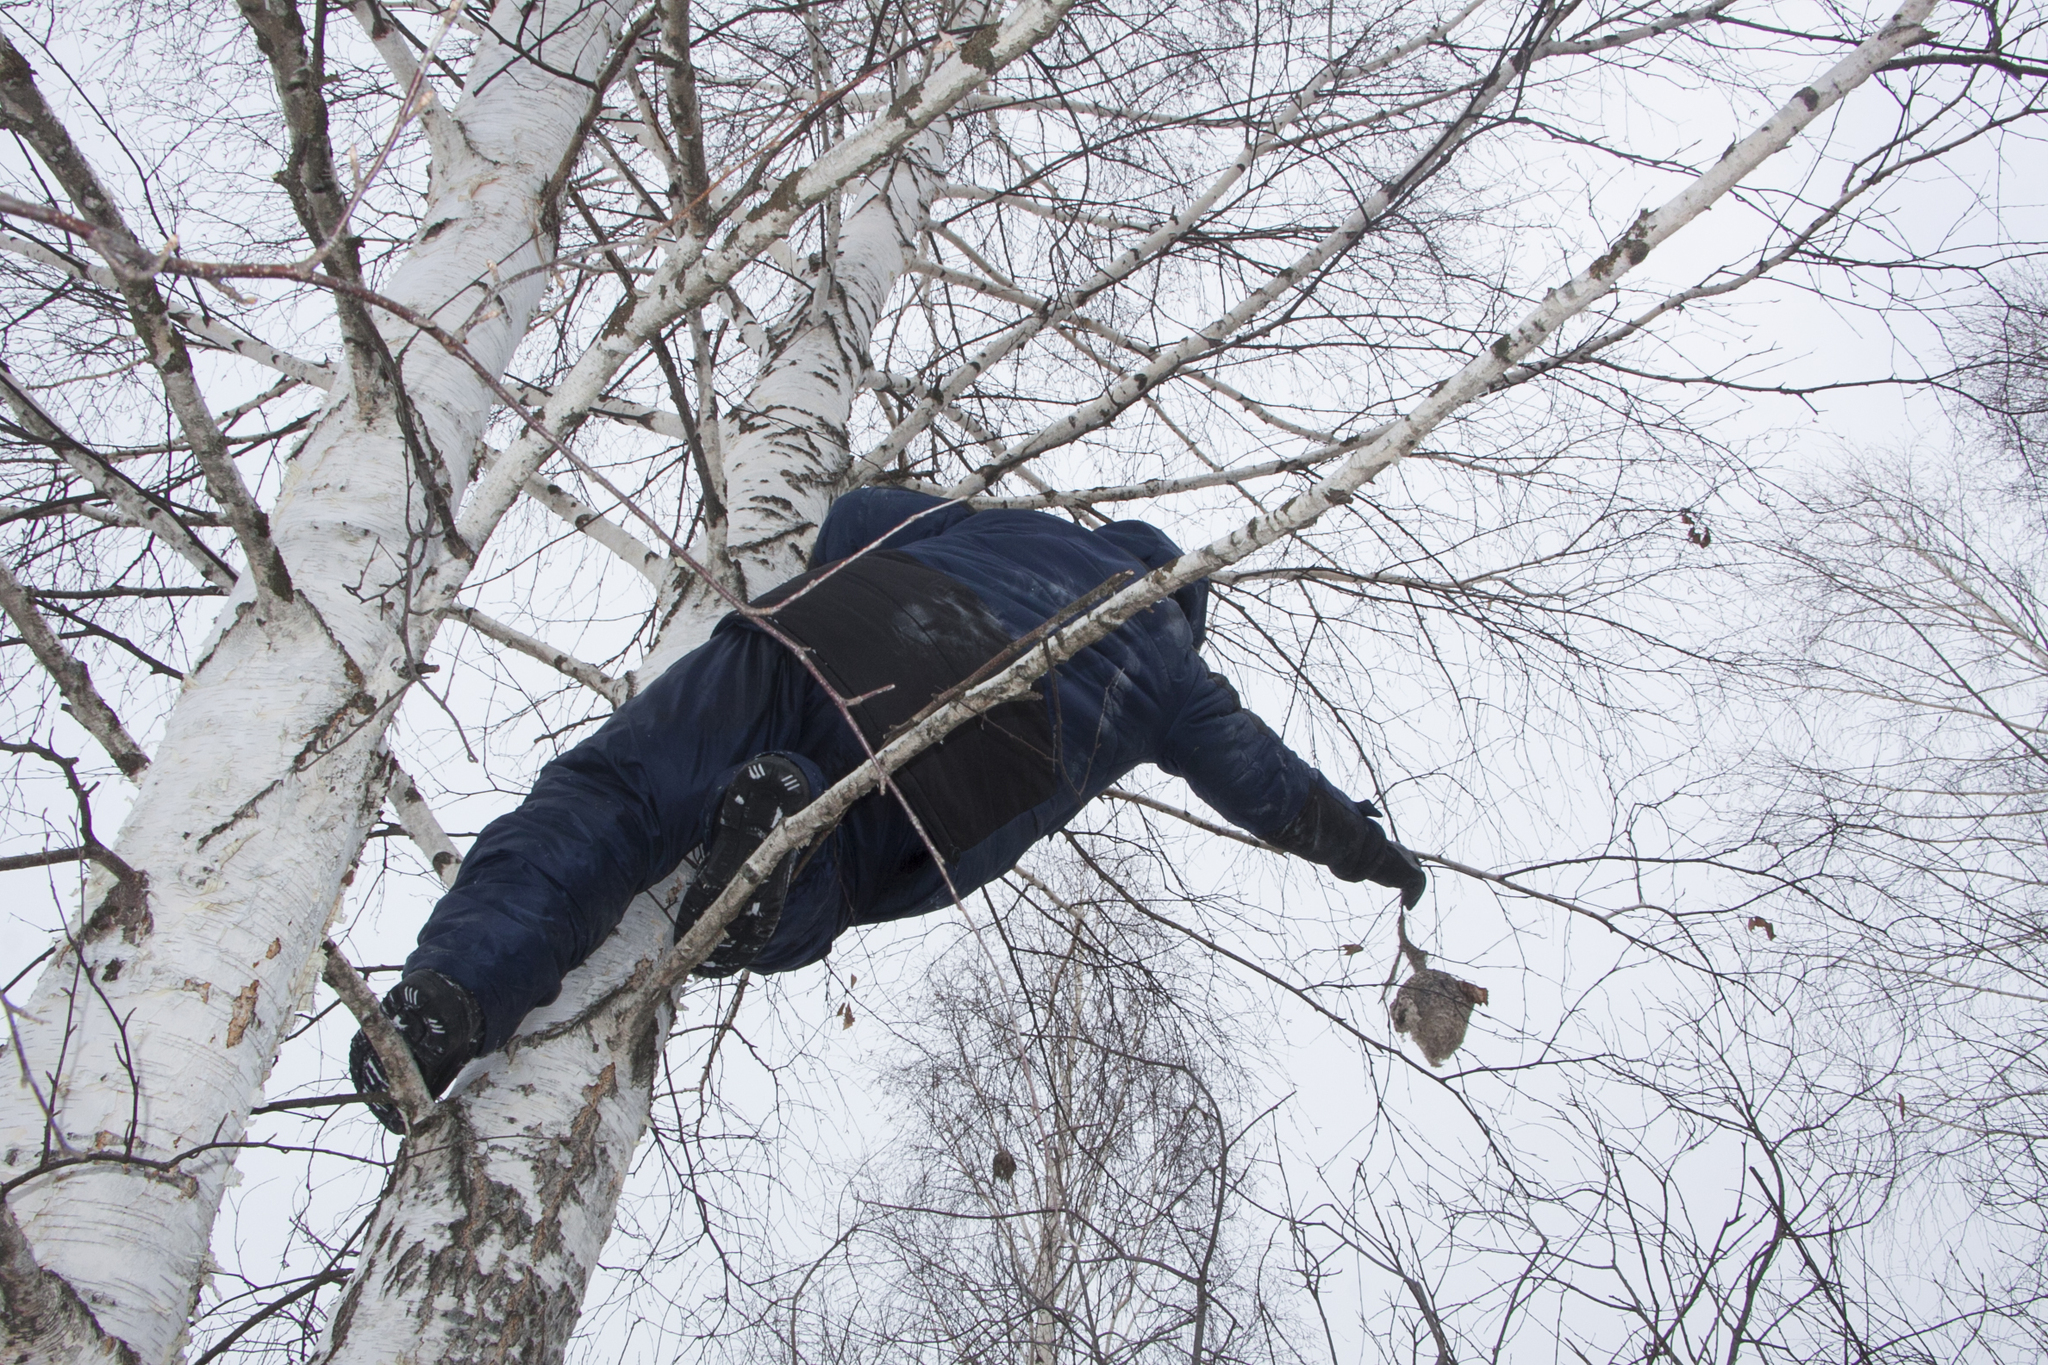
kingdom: Animalia
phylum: Chordata
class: Aves
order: Passeriformes
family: Remizidae
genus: Remiz
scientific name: Remiz pendulinus
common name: Eurasian penduline tit
